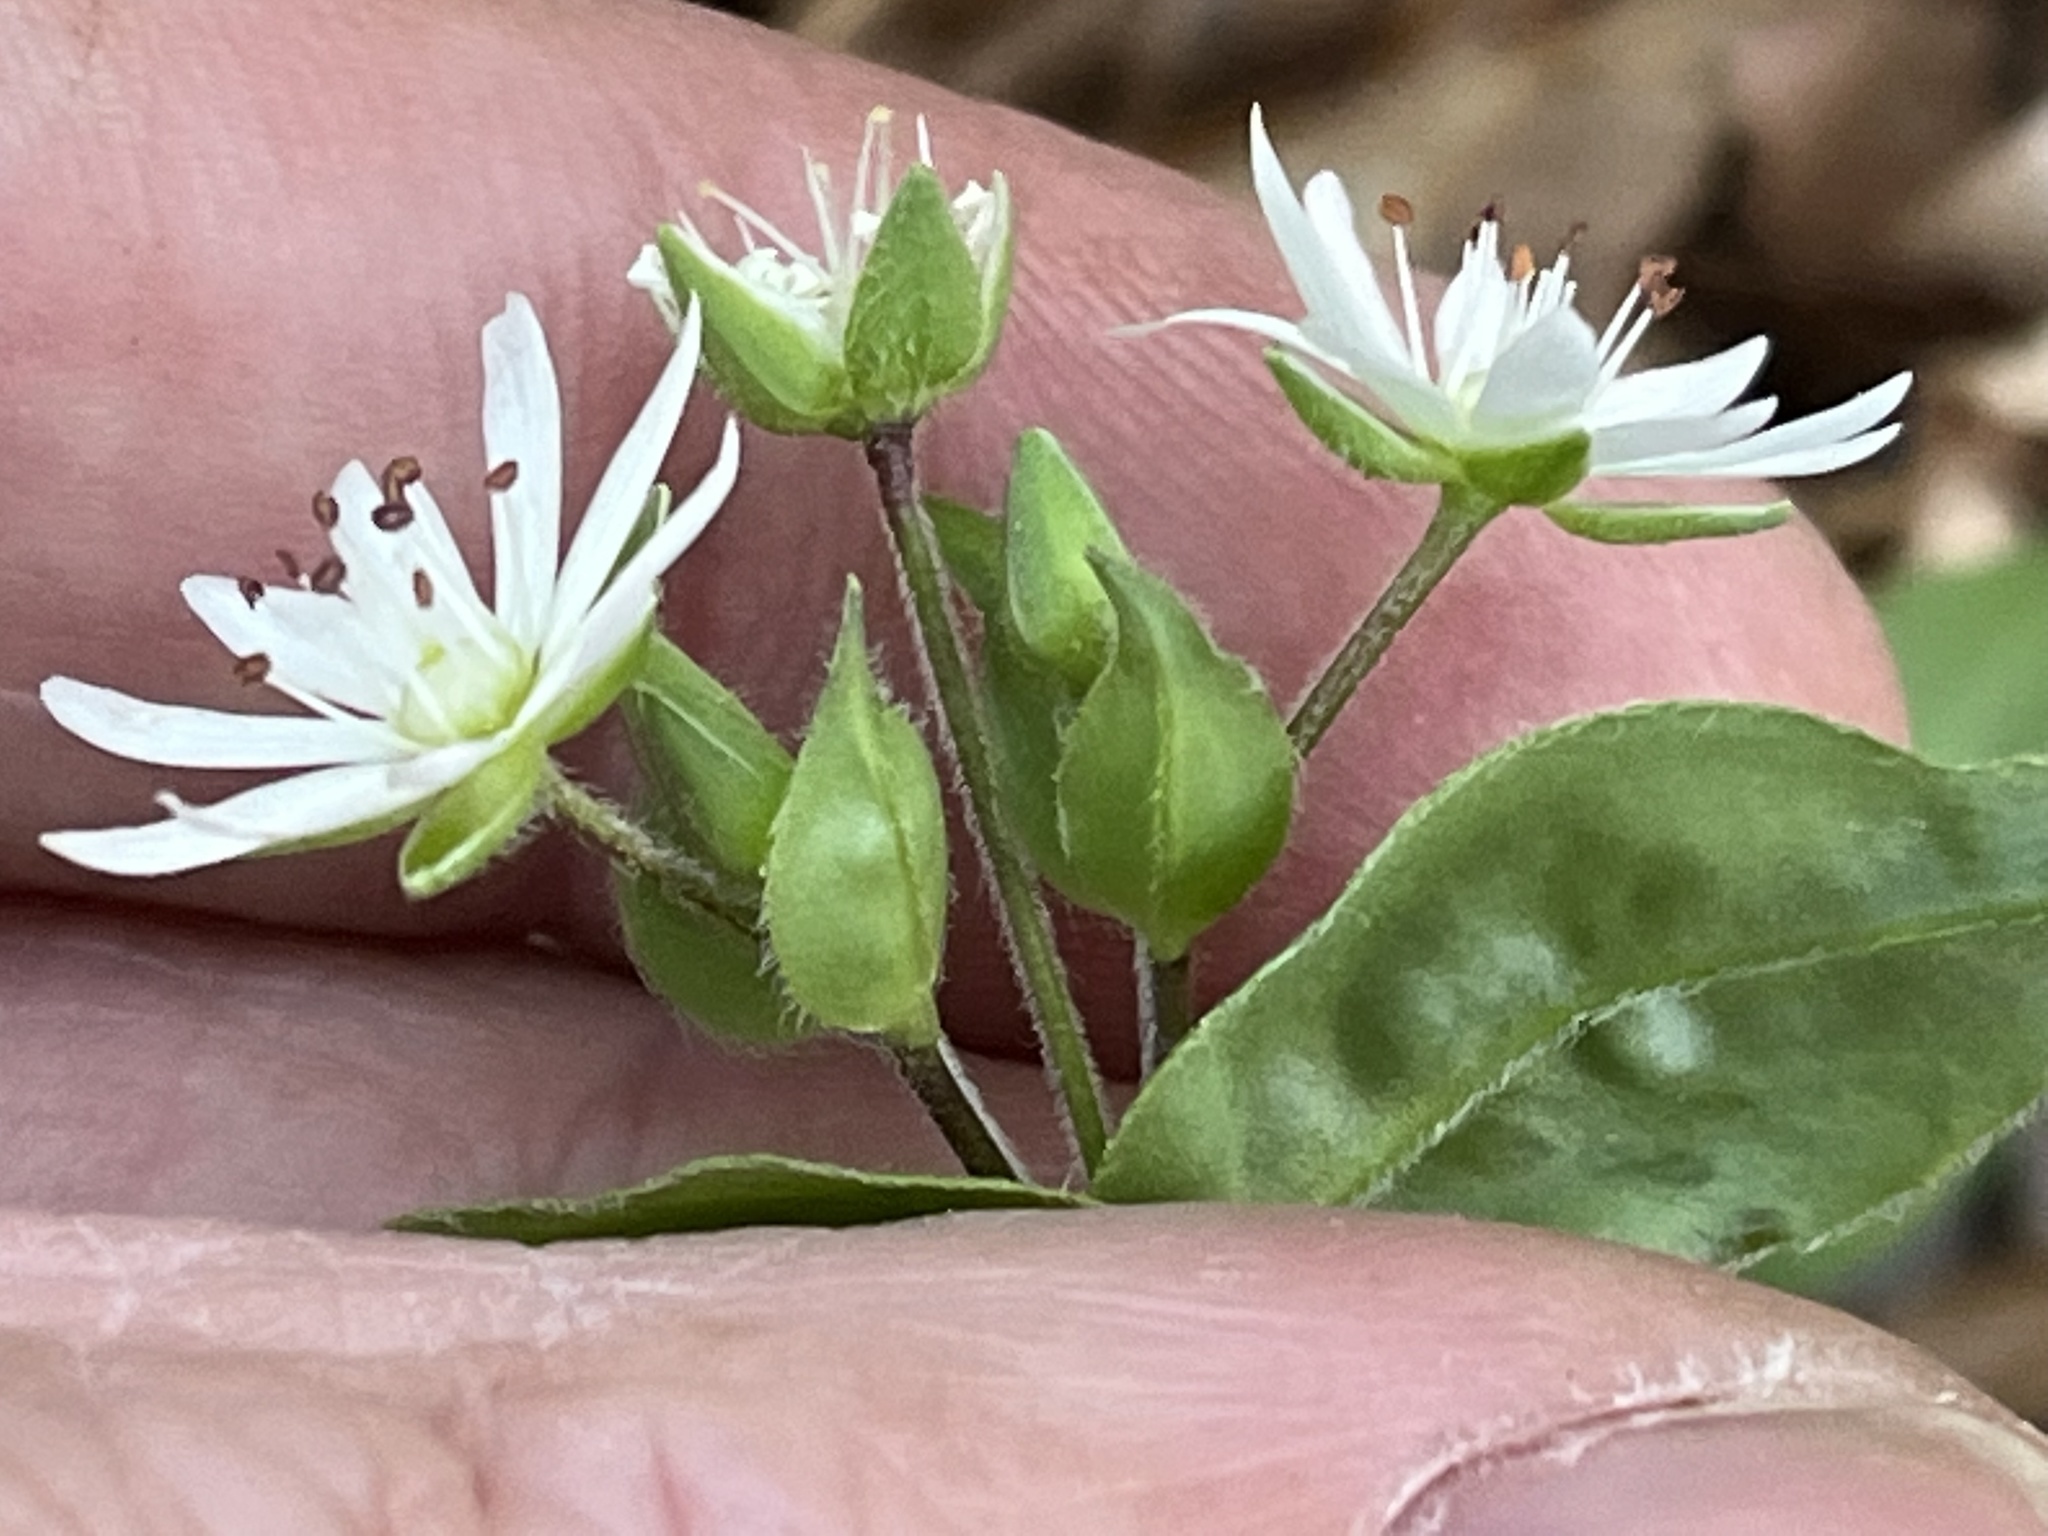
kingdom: Plantae
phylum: Tracheophyta
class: Magnoliopsida
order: Caryophyllales
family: Caryophyllaceae
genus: Stellaria
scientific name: Stellaria pubera
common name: Star chickweed
